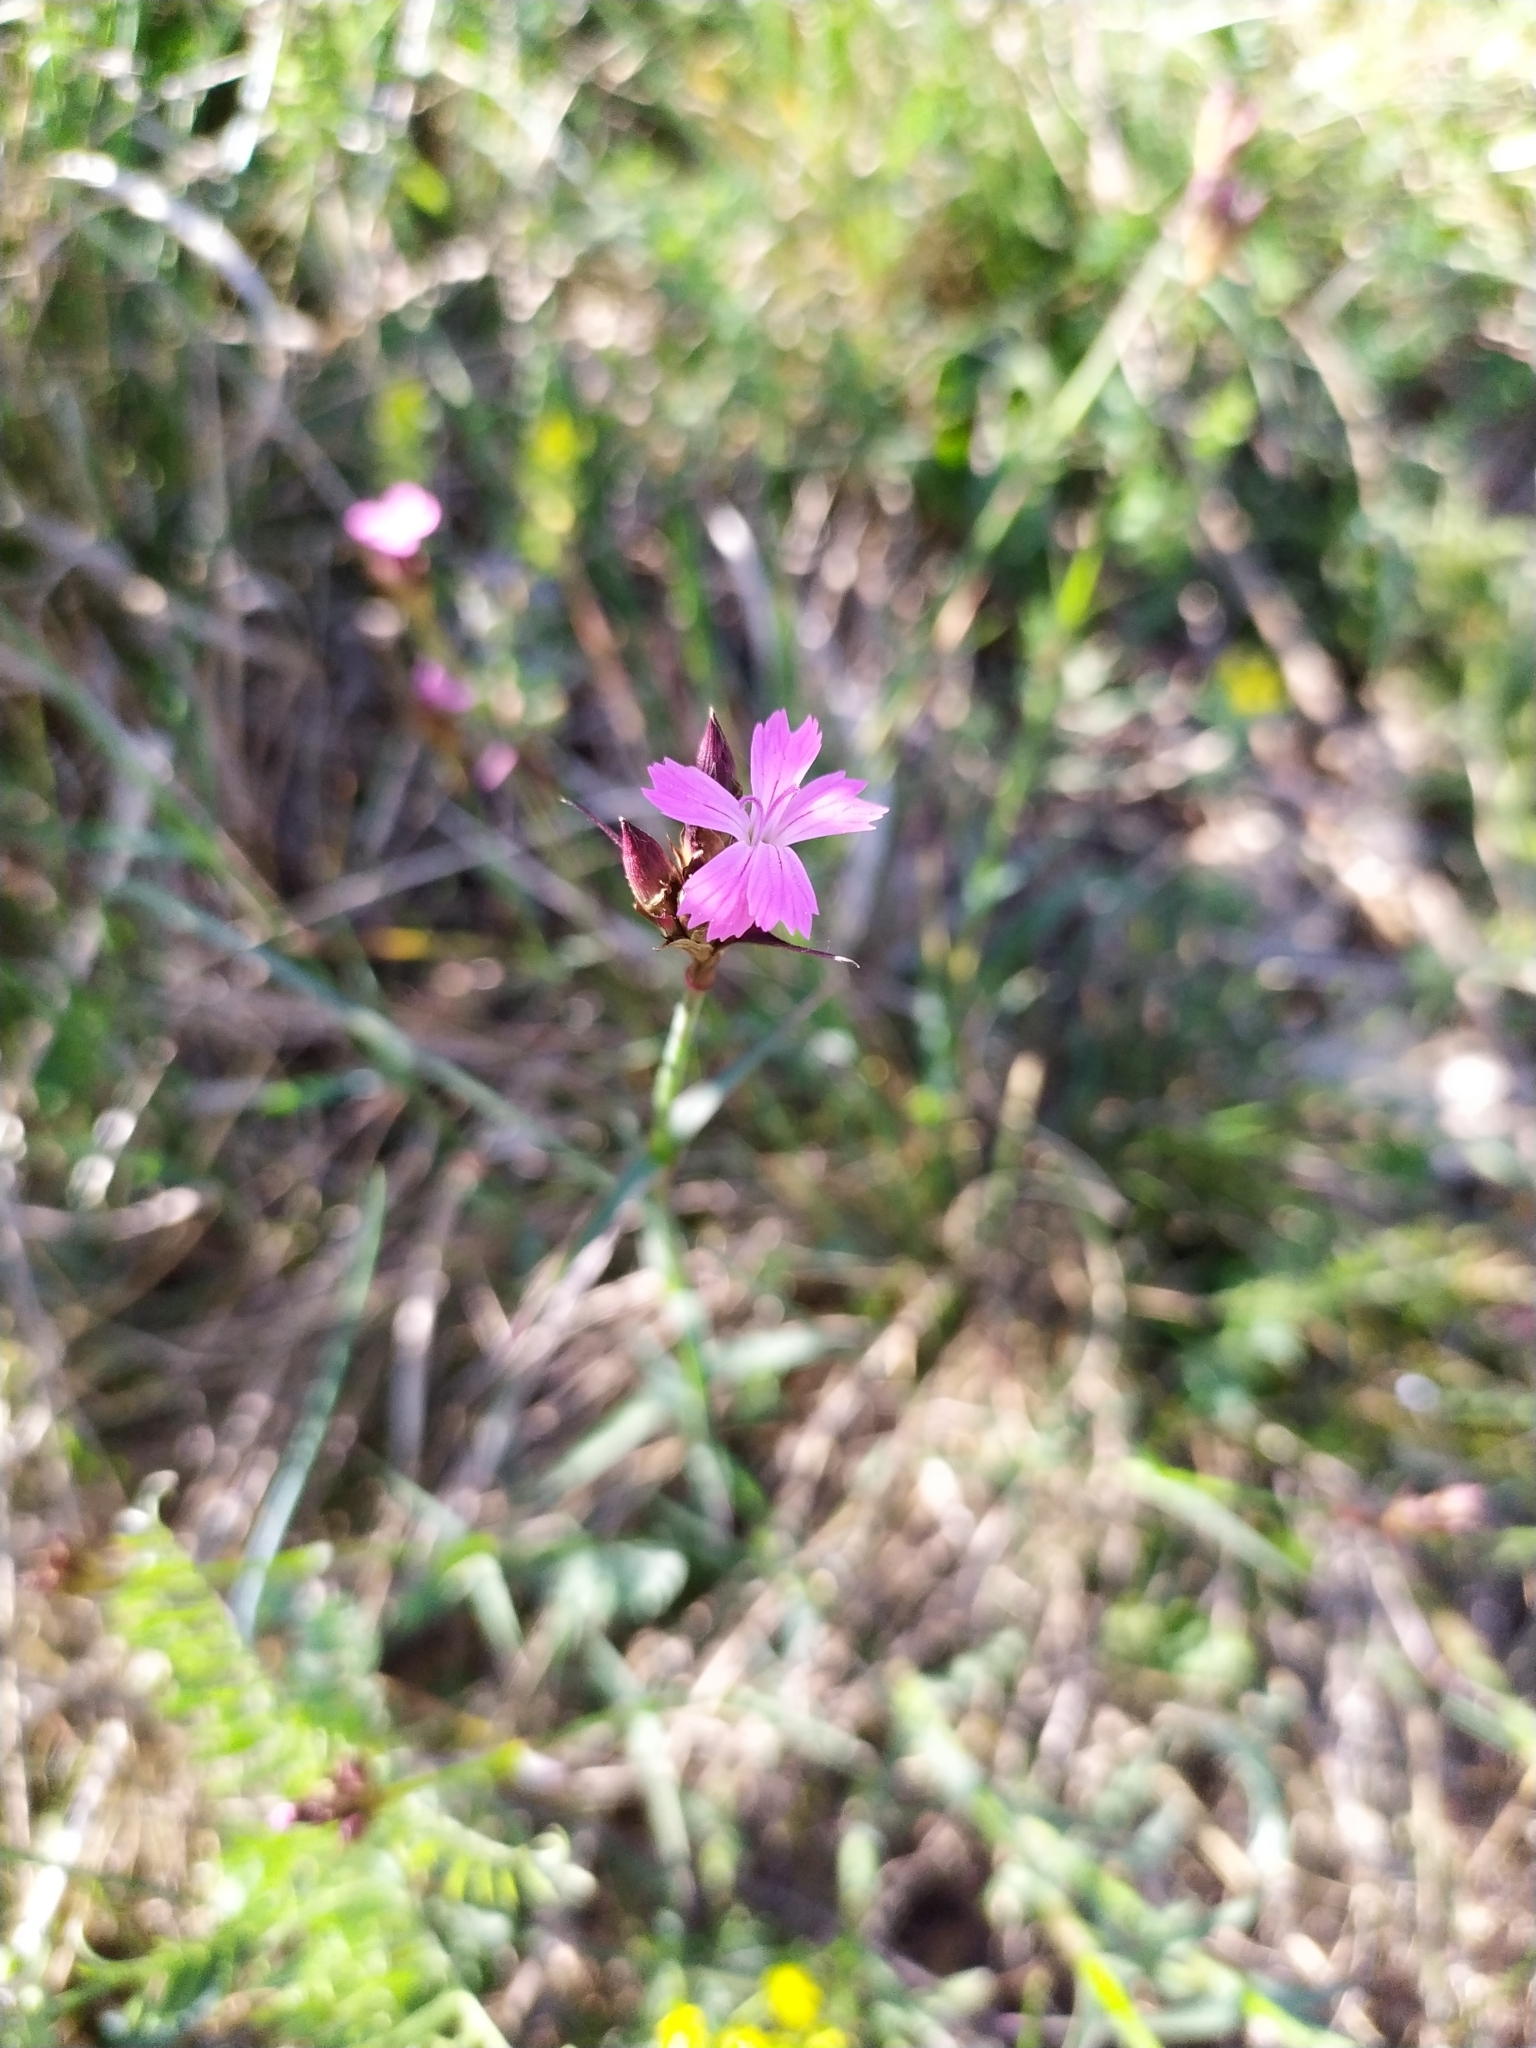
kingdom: Plantae
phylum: Tracheophyta
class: Magnoliopsida
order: Caryophyllales
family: Caryophyllaceae
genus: Dianthus
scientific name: Dianthus carthusianorum
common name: Carthusian pink
